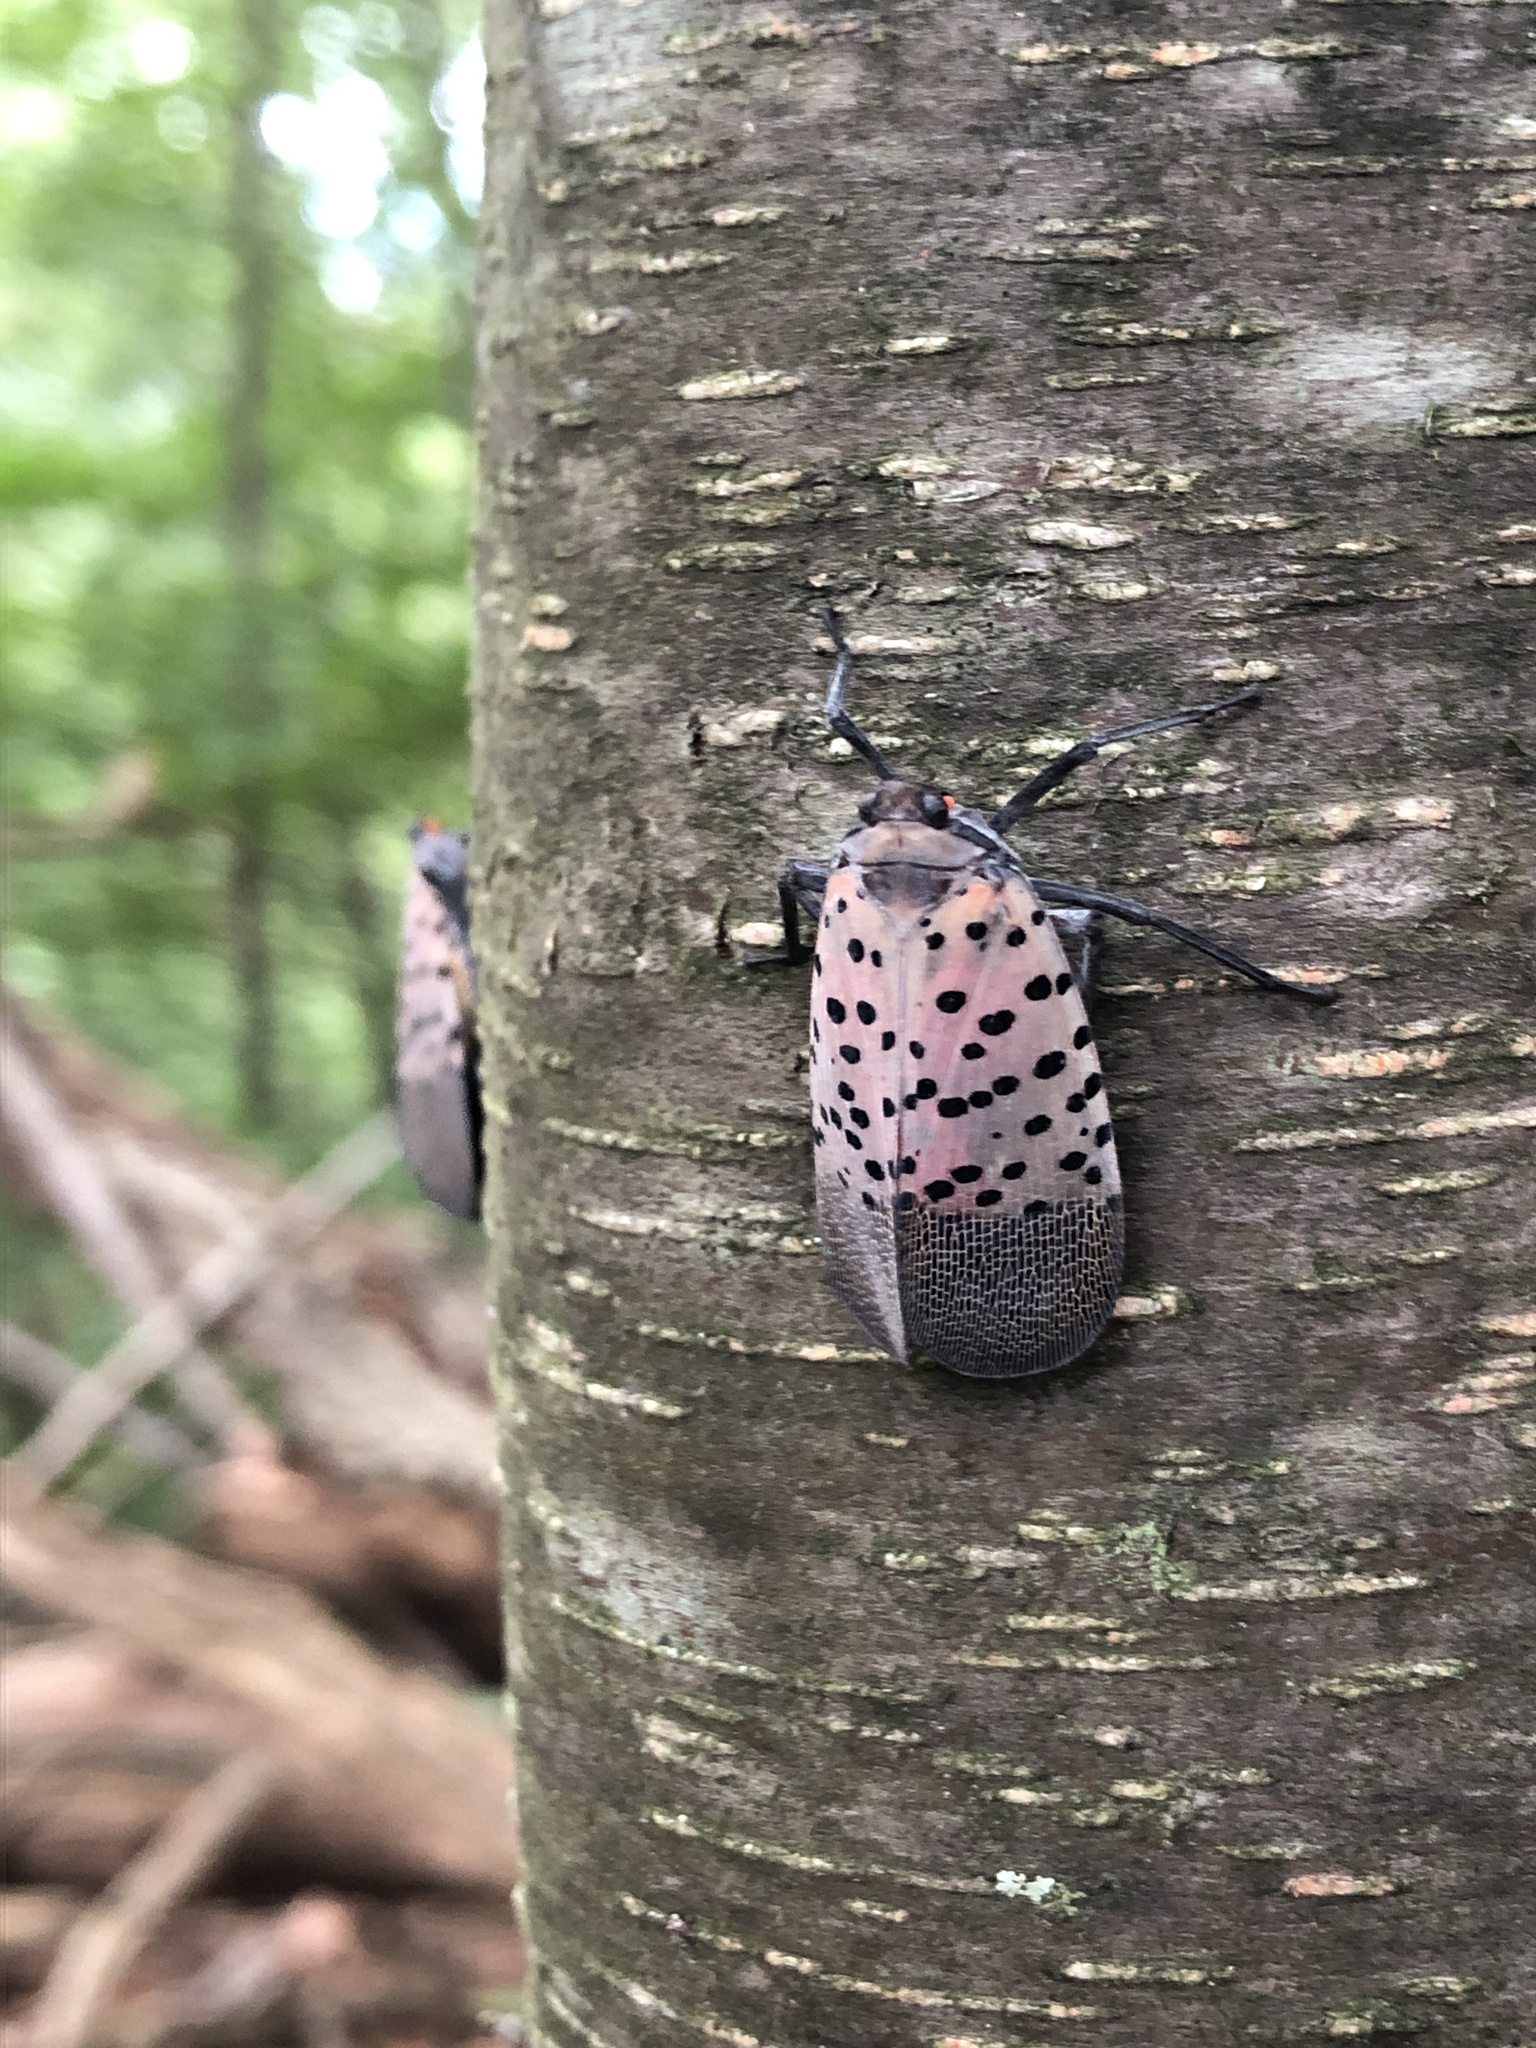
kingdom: Animalia
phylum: Arthropoda
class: Insecta
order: Hemiptera
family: Fulgoridae
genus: Lycorma
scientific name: Lycorma delicatula
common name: Spotted lanternfly
